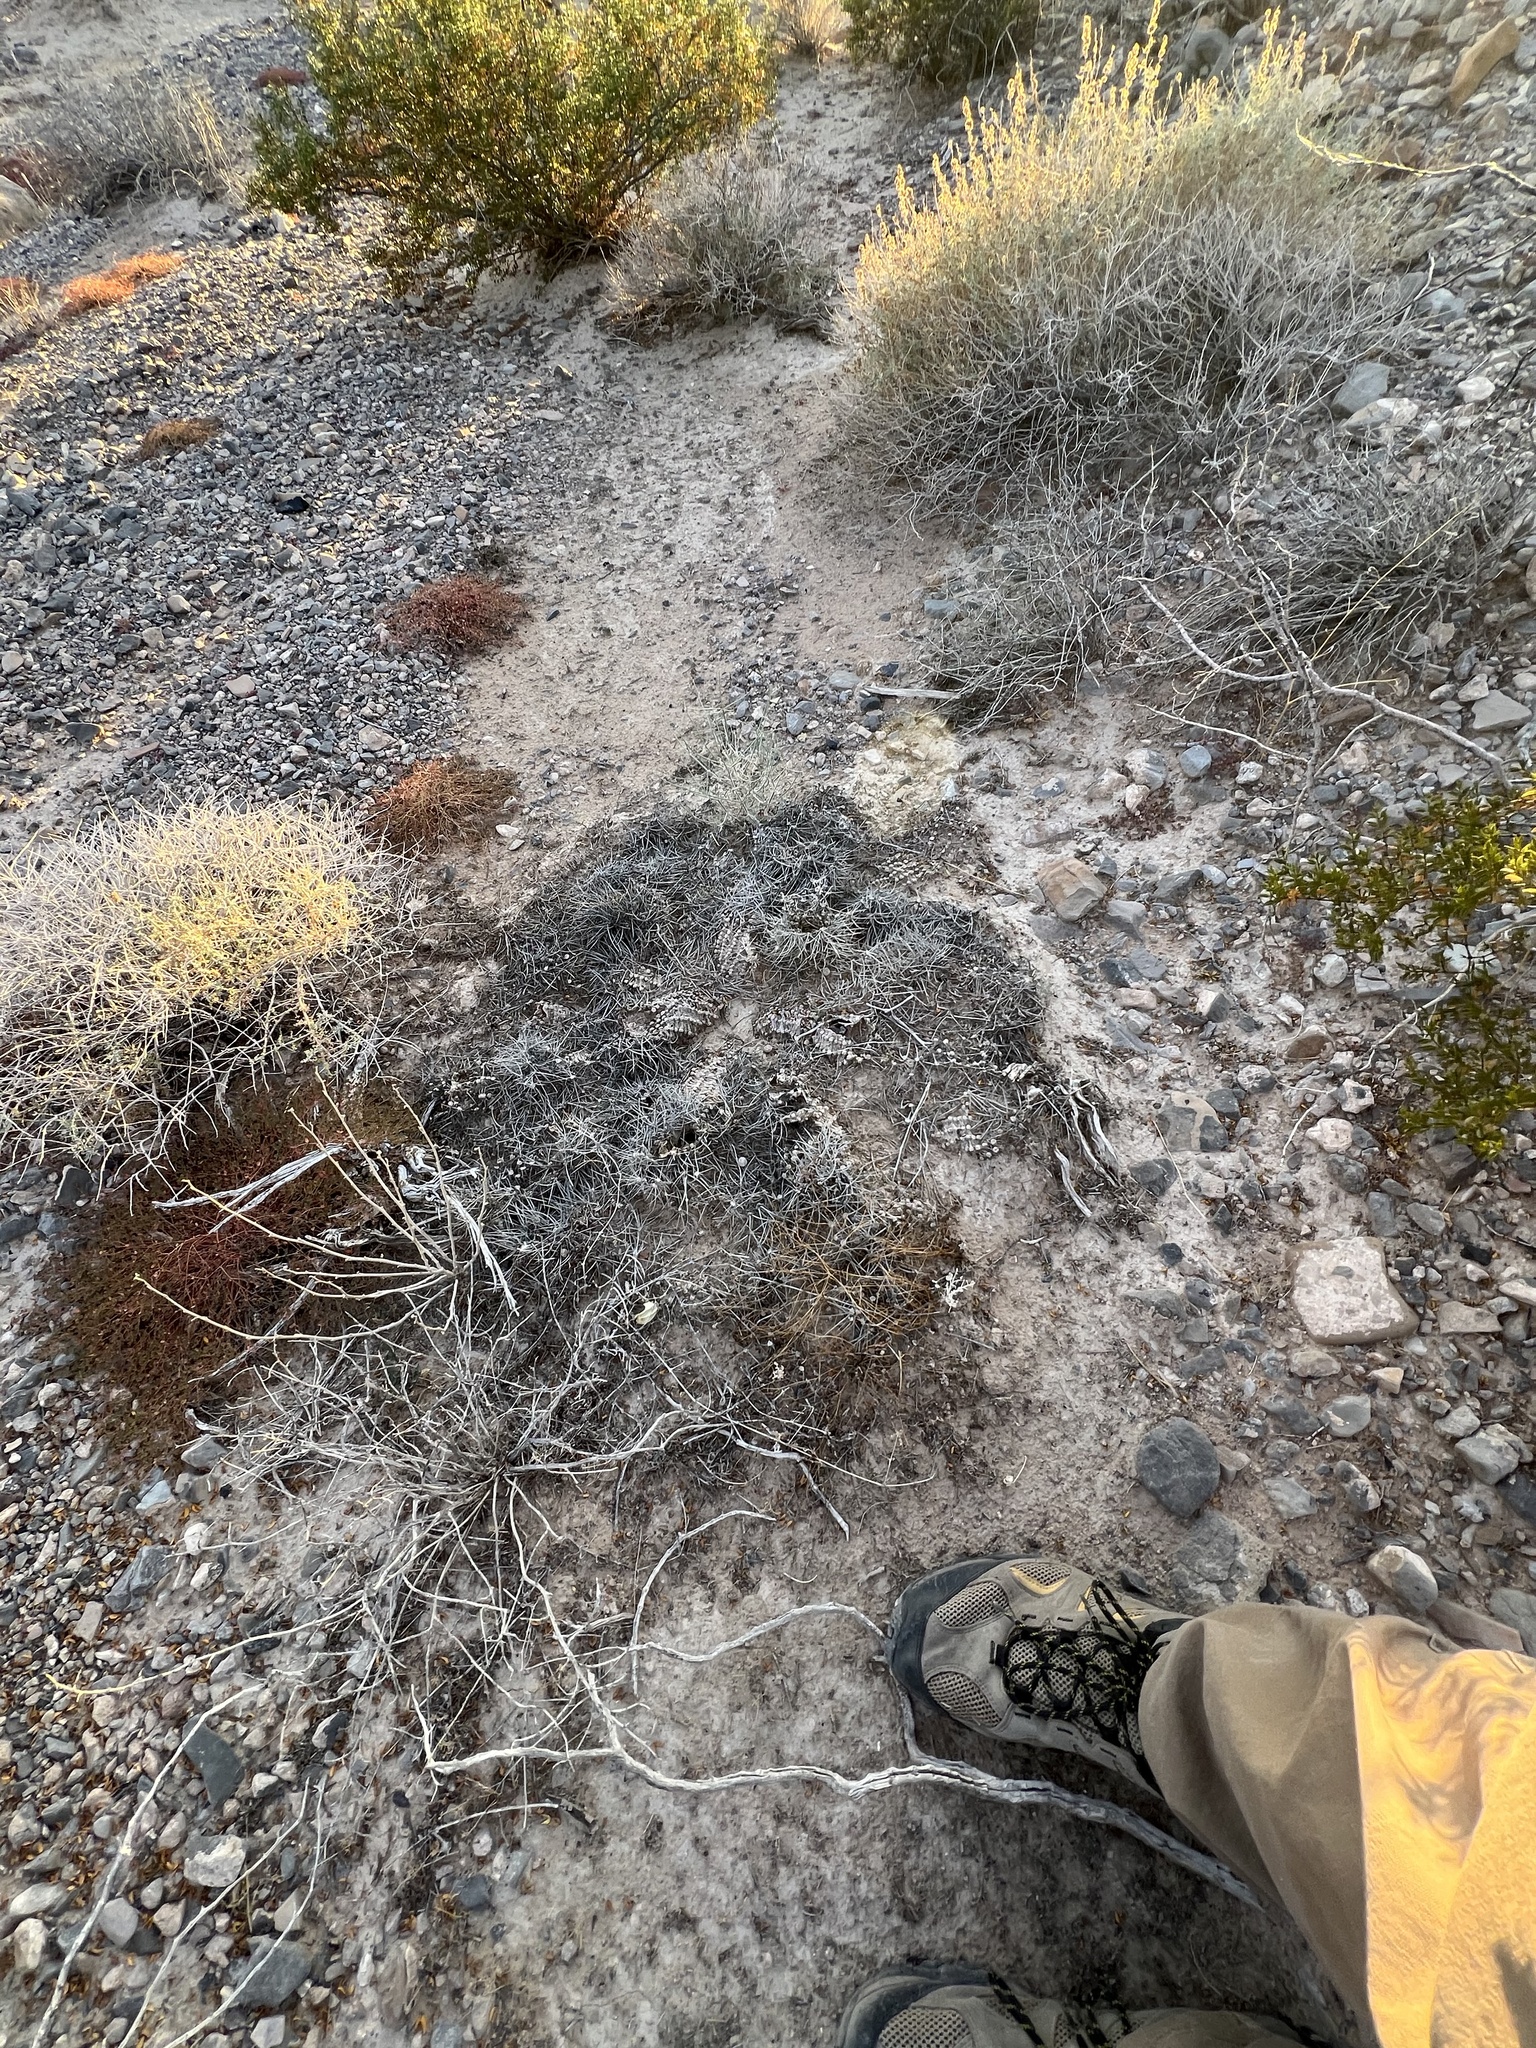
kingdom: Plantae
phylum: Tracheophyta
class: Magnoliopsida
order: Caryophyllales
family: Cactaceae
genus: Echinocereus
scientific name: Echinocereus engelmannii
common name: Engelmann's hedgehog cactus
